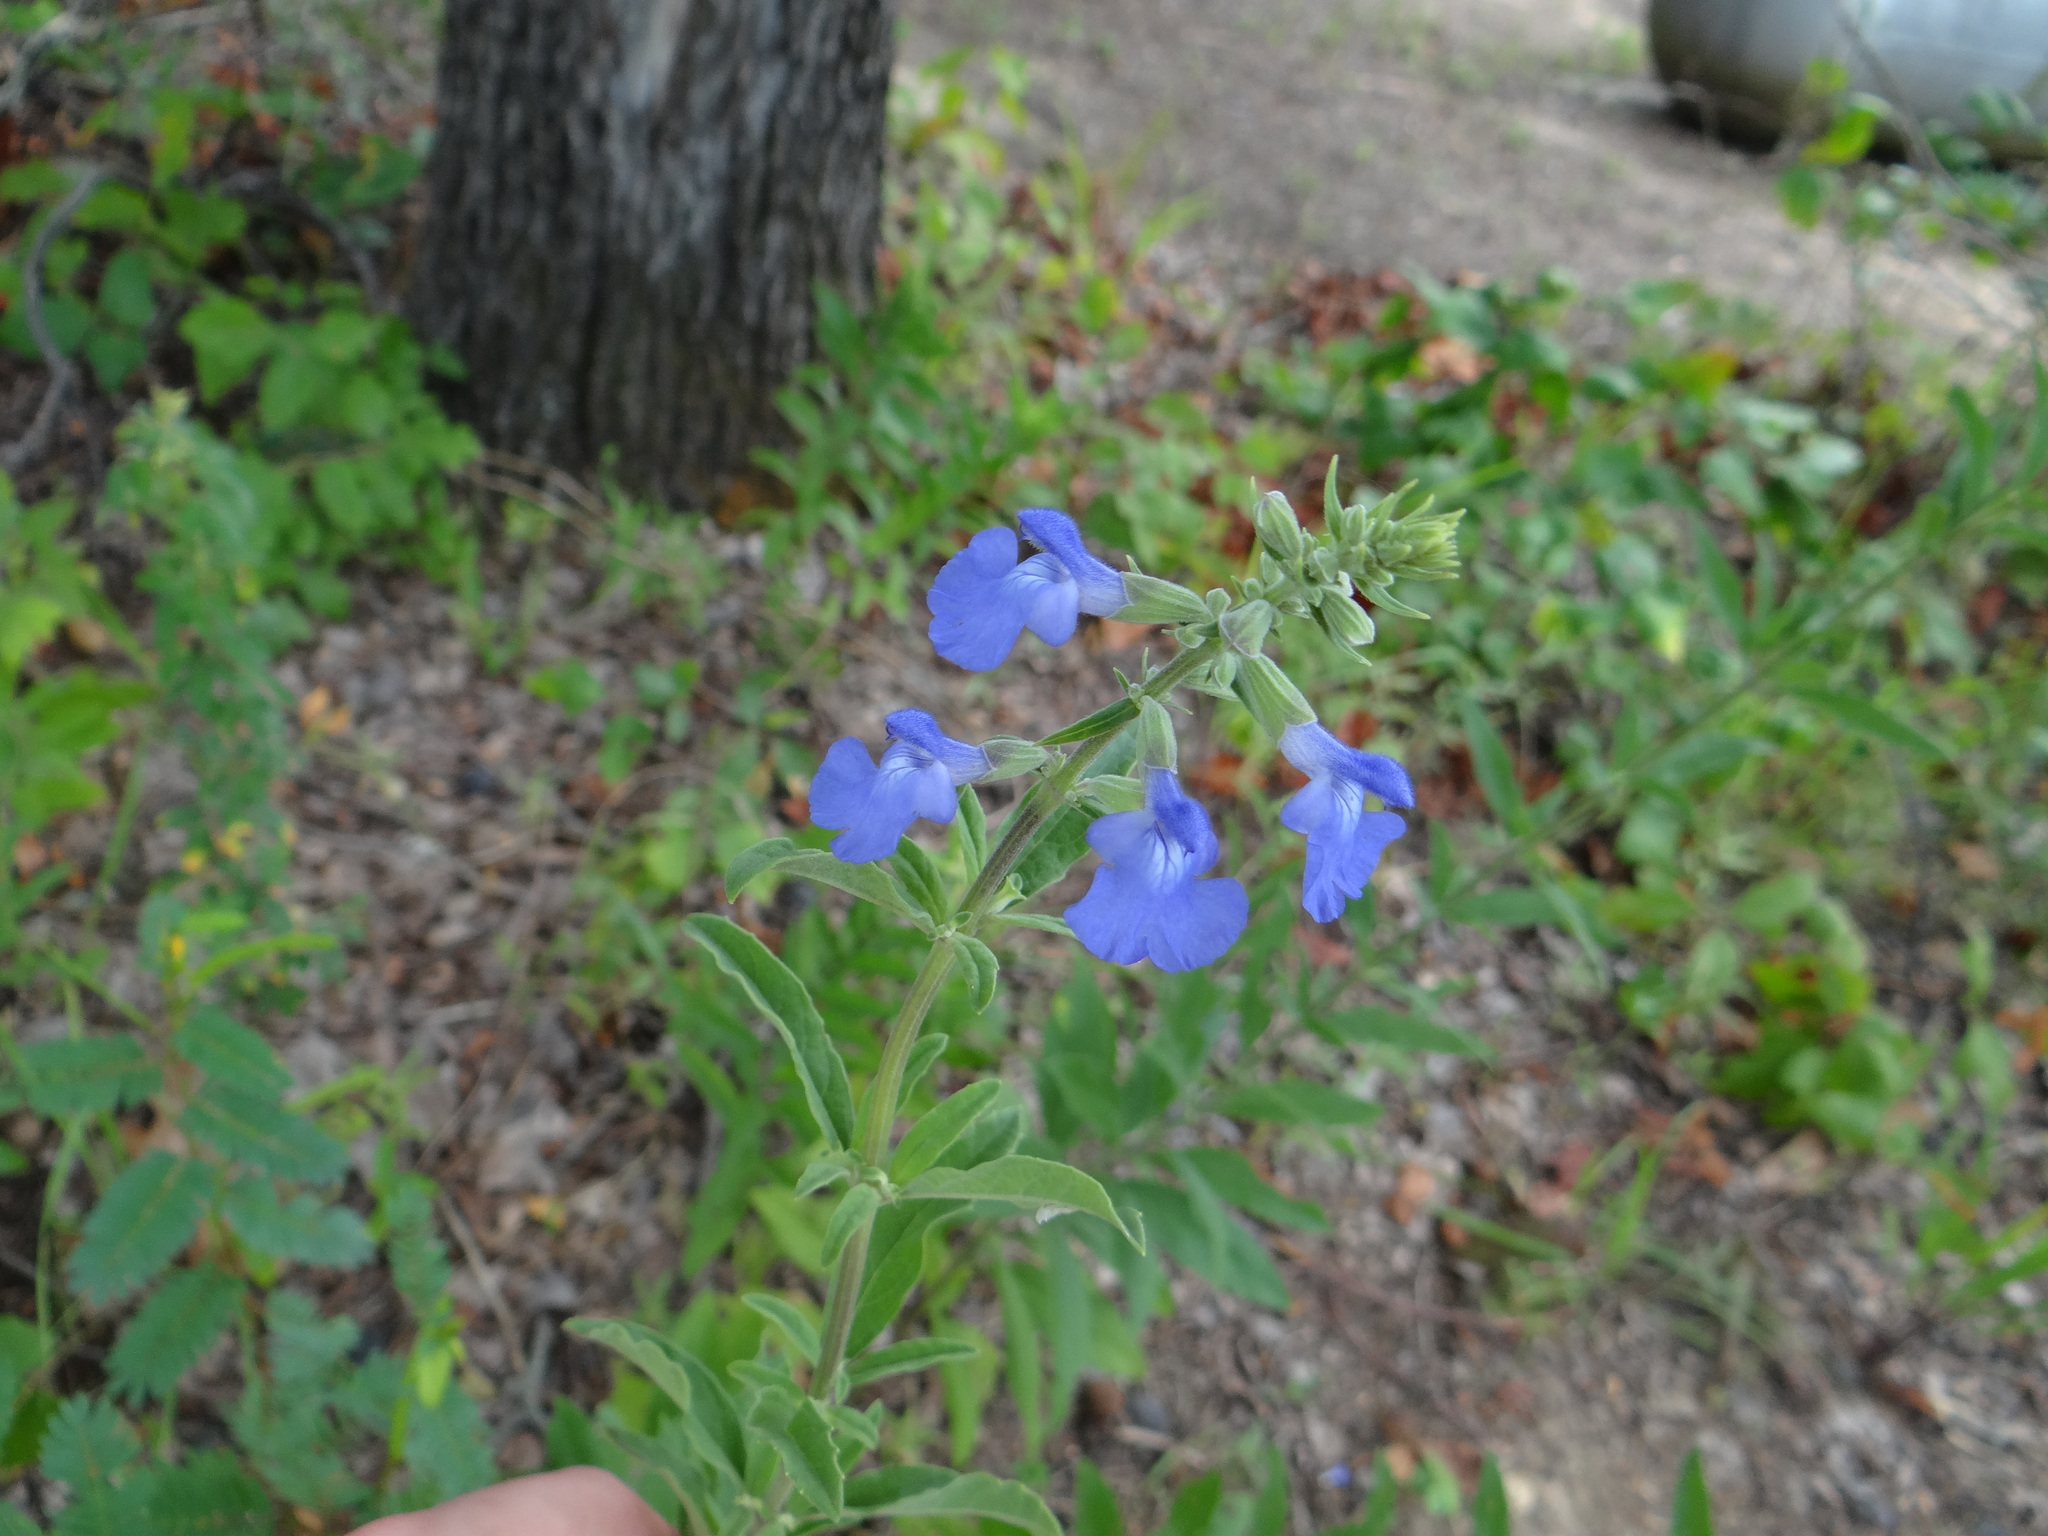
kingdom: Plantae
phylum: Tracheophyta
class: Magnoliopsida
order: Lamiales
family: Lamiaceae
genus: Salvia
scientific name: Salvia azurea
